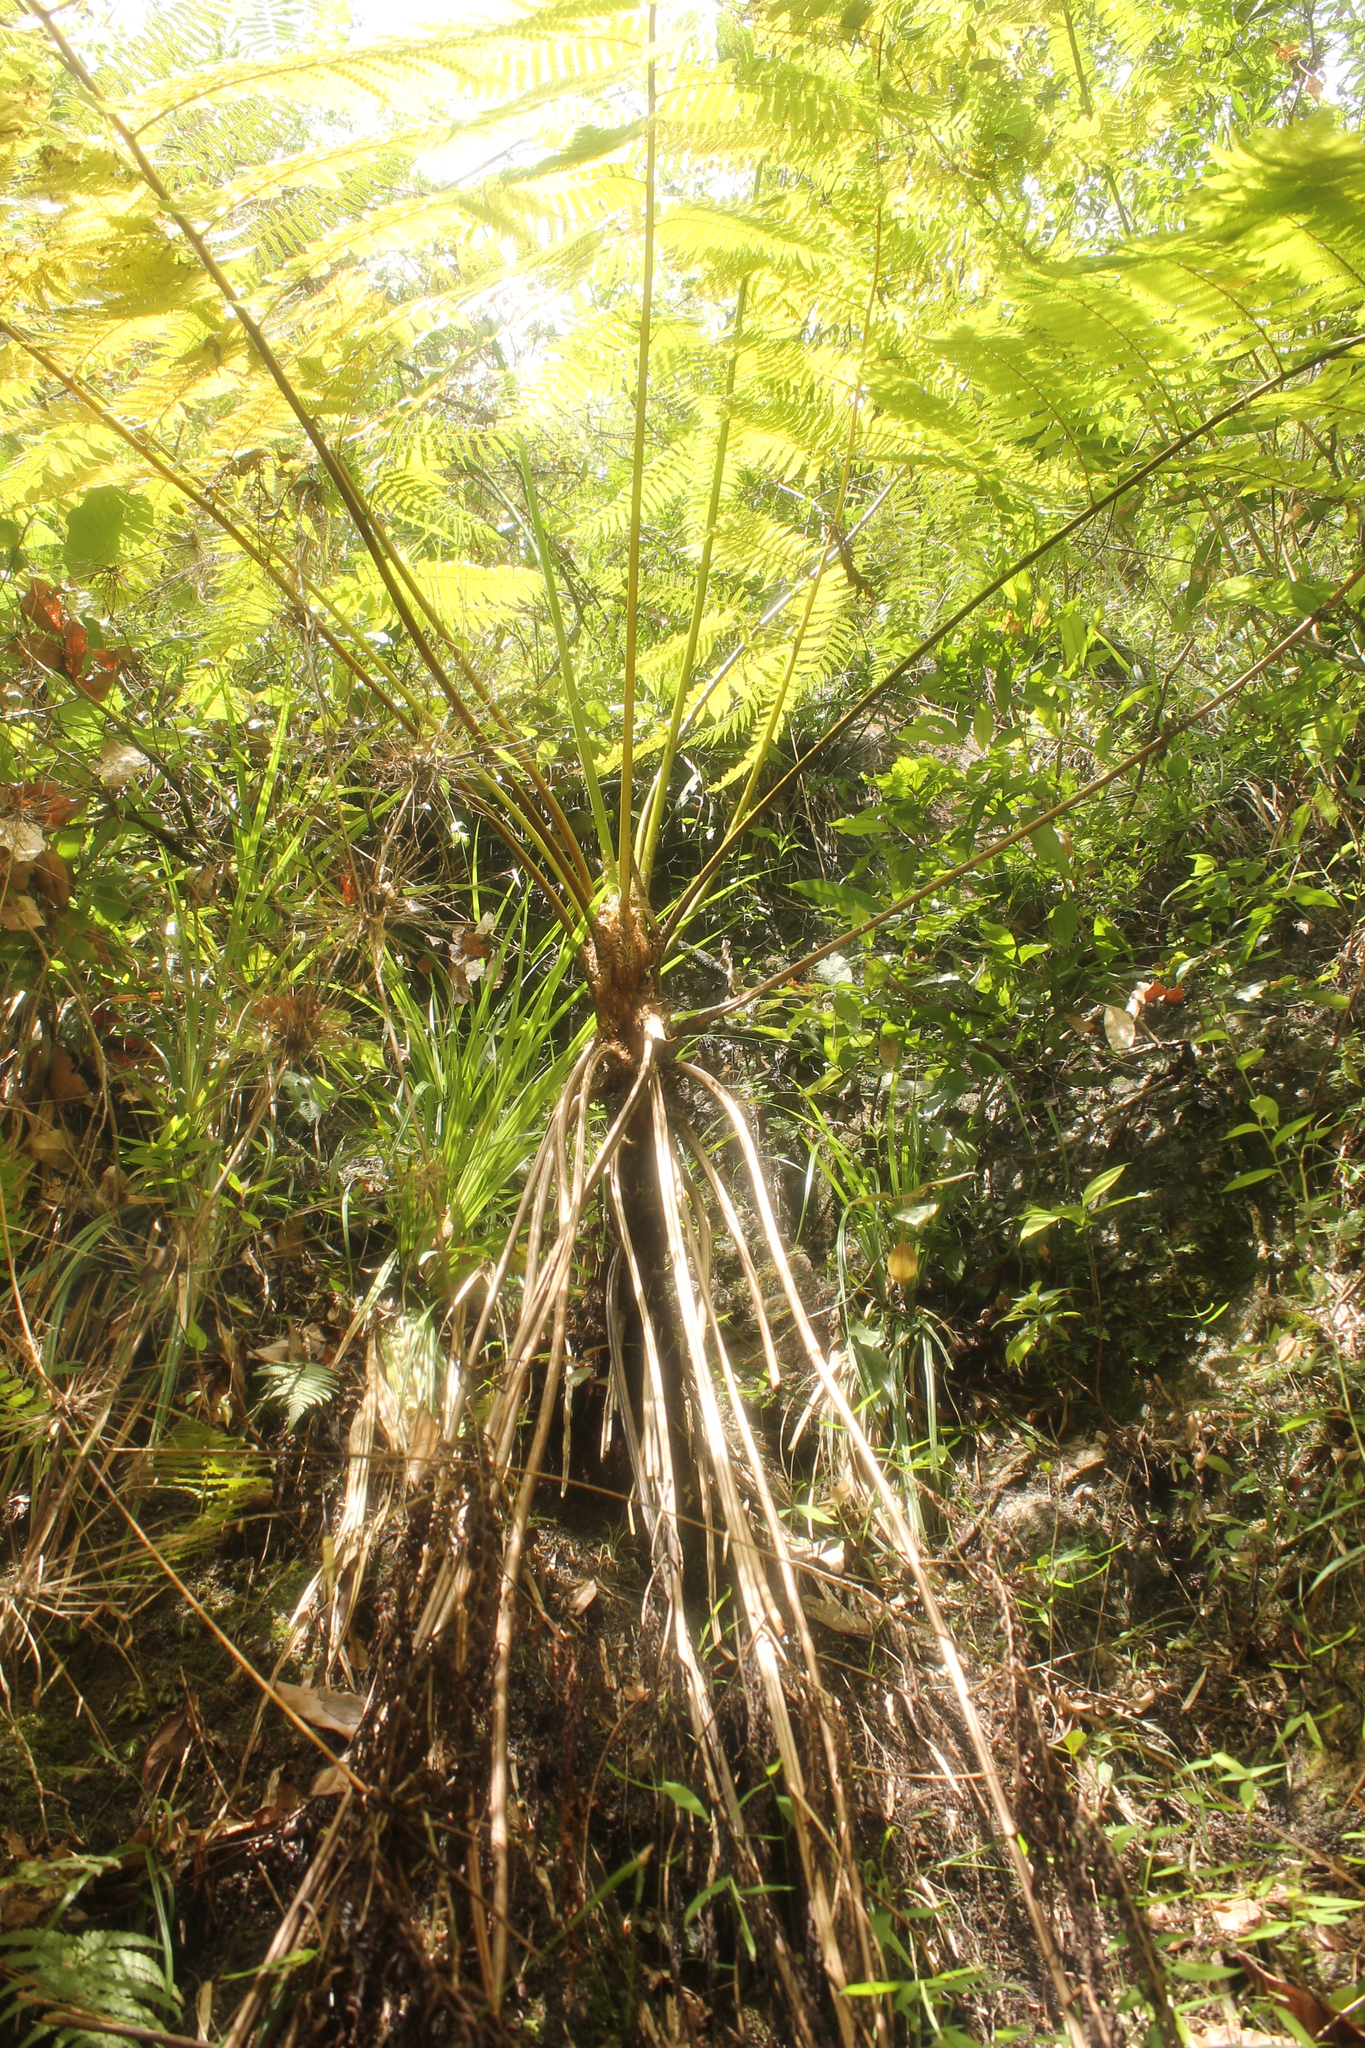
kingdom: Plantae
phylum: Tracheophyta
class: Polypodiopsida
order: Cyatheales
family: Cyatheaceae
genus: Cyathea
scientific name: Cyathea costaricensis
